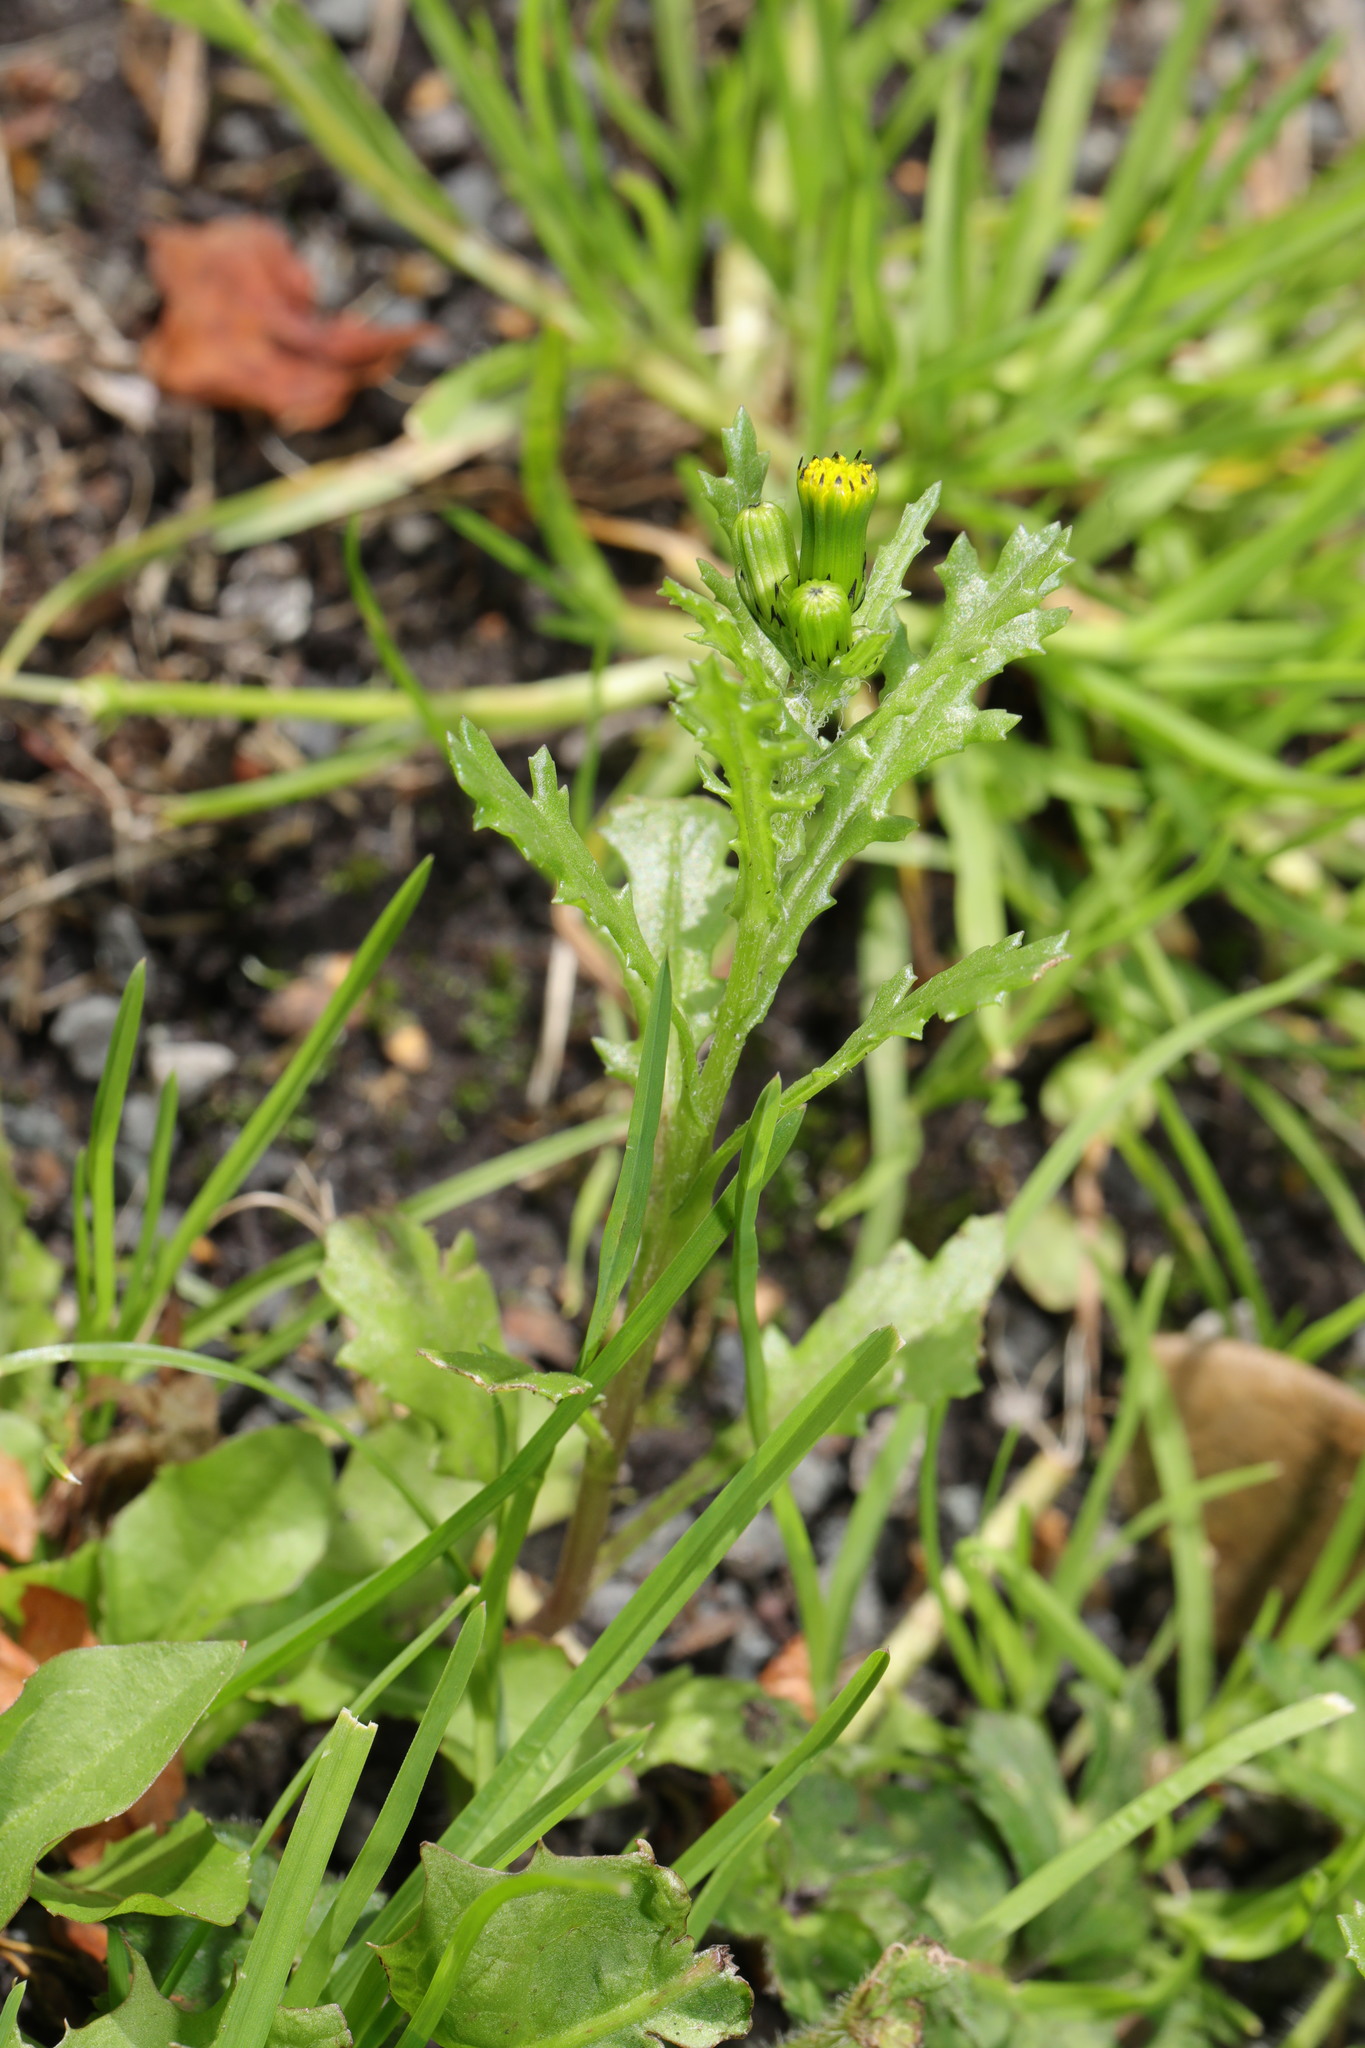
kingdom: Plantae
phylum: Tracheophyta
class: Magnoliopsida
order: Asterales
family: Asteraceae
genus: Senecio
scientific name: Senecio vulgaris
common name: Old-man-in-the-spring
